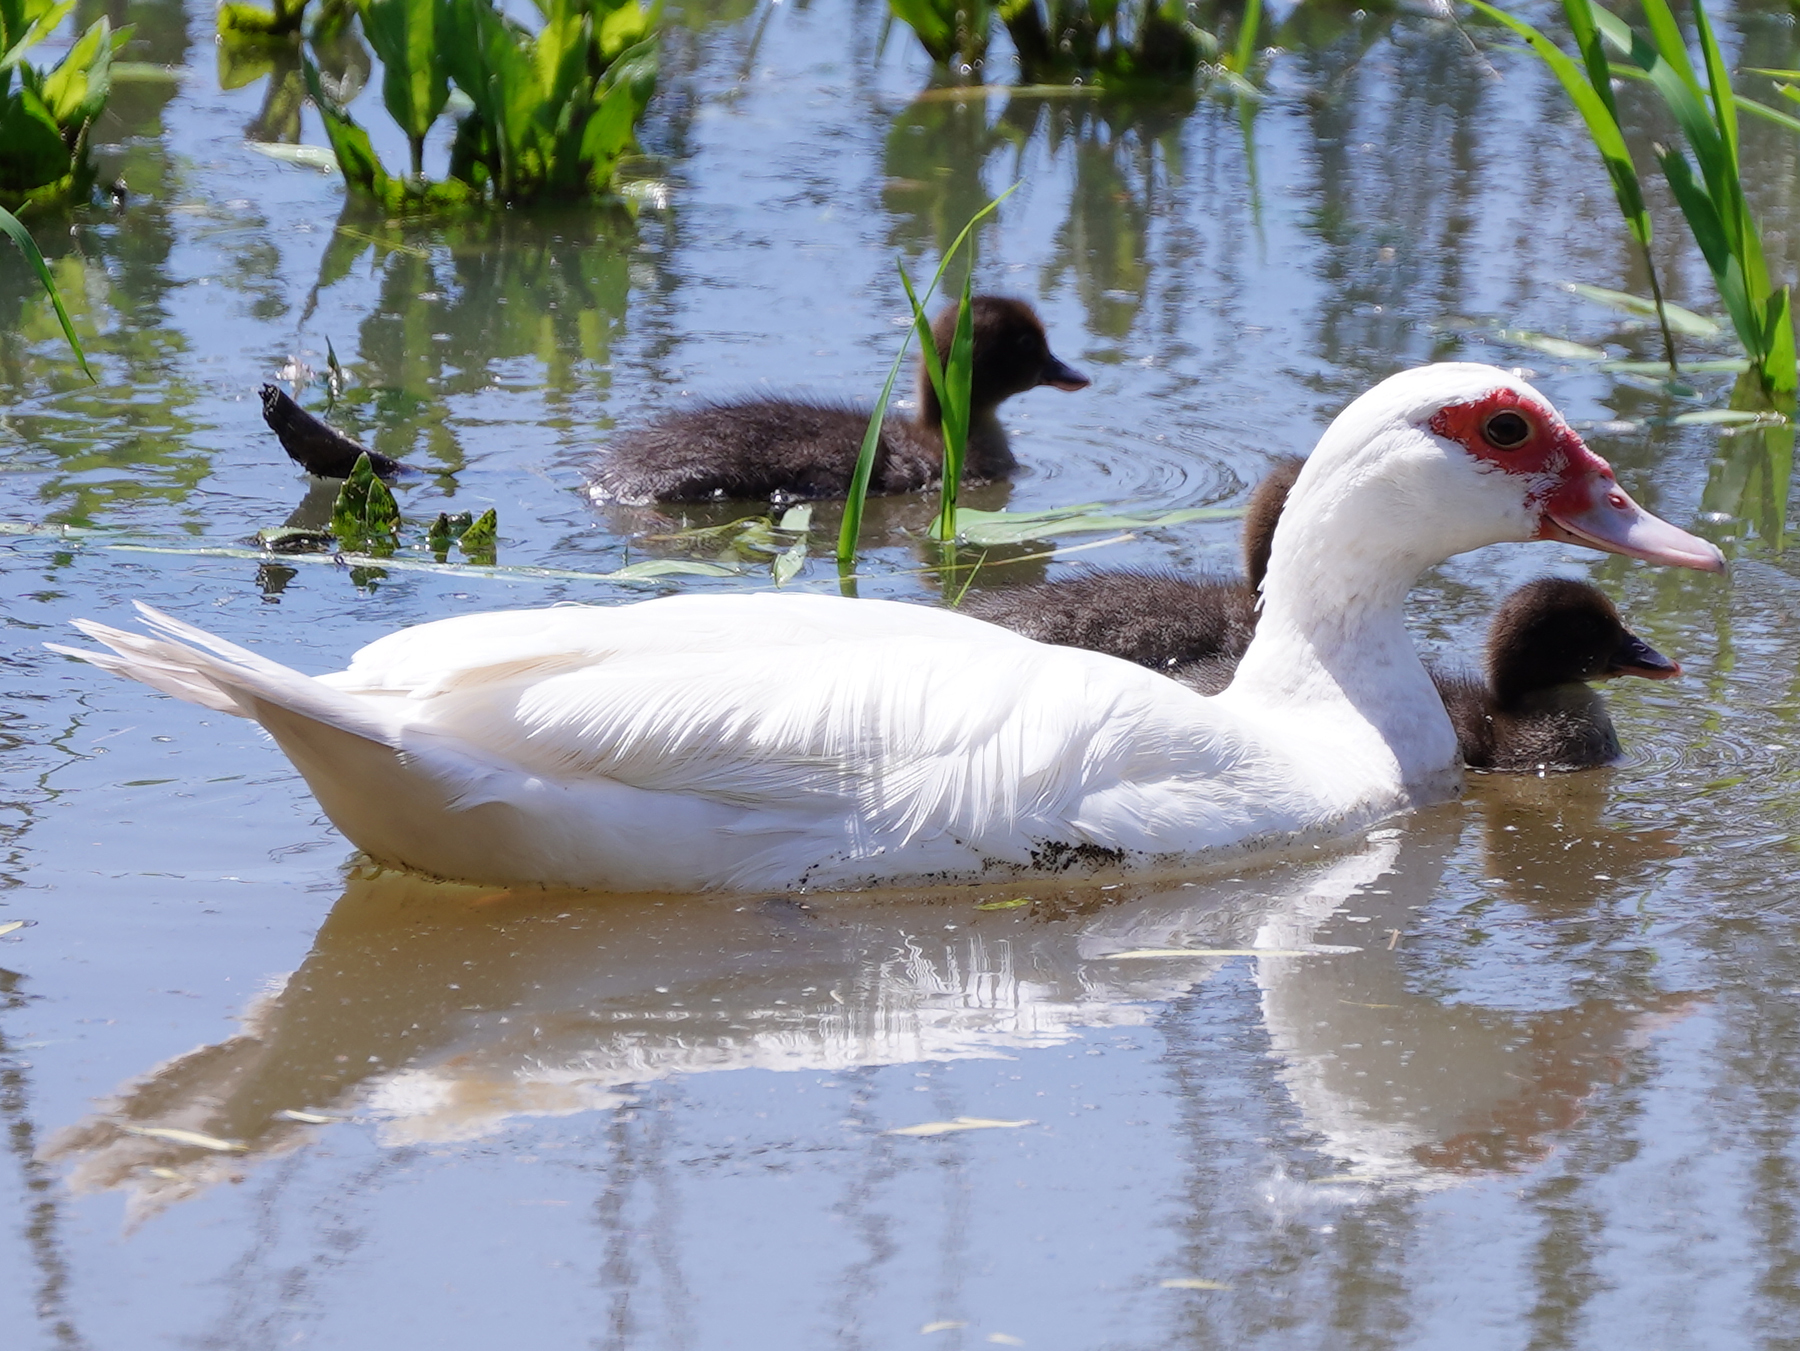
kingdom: Animalia
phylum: Chordata
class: Aves
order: Anseriformes
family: Anatidae
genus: Cairina
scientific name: Cairina moschata
